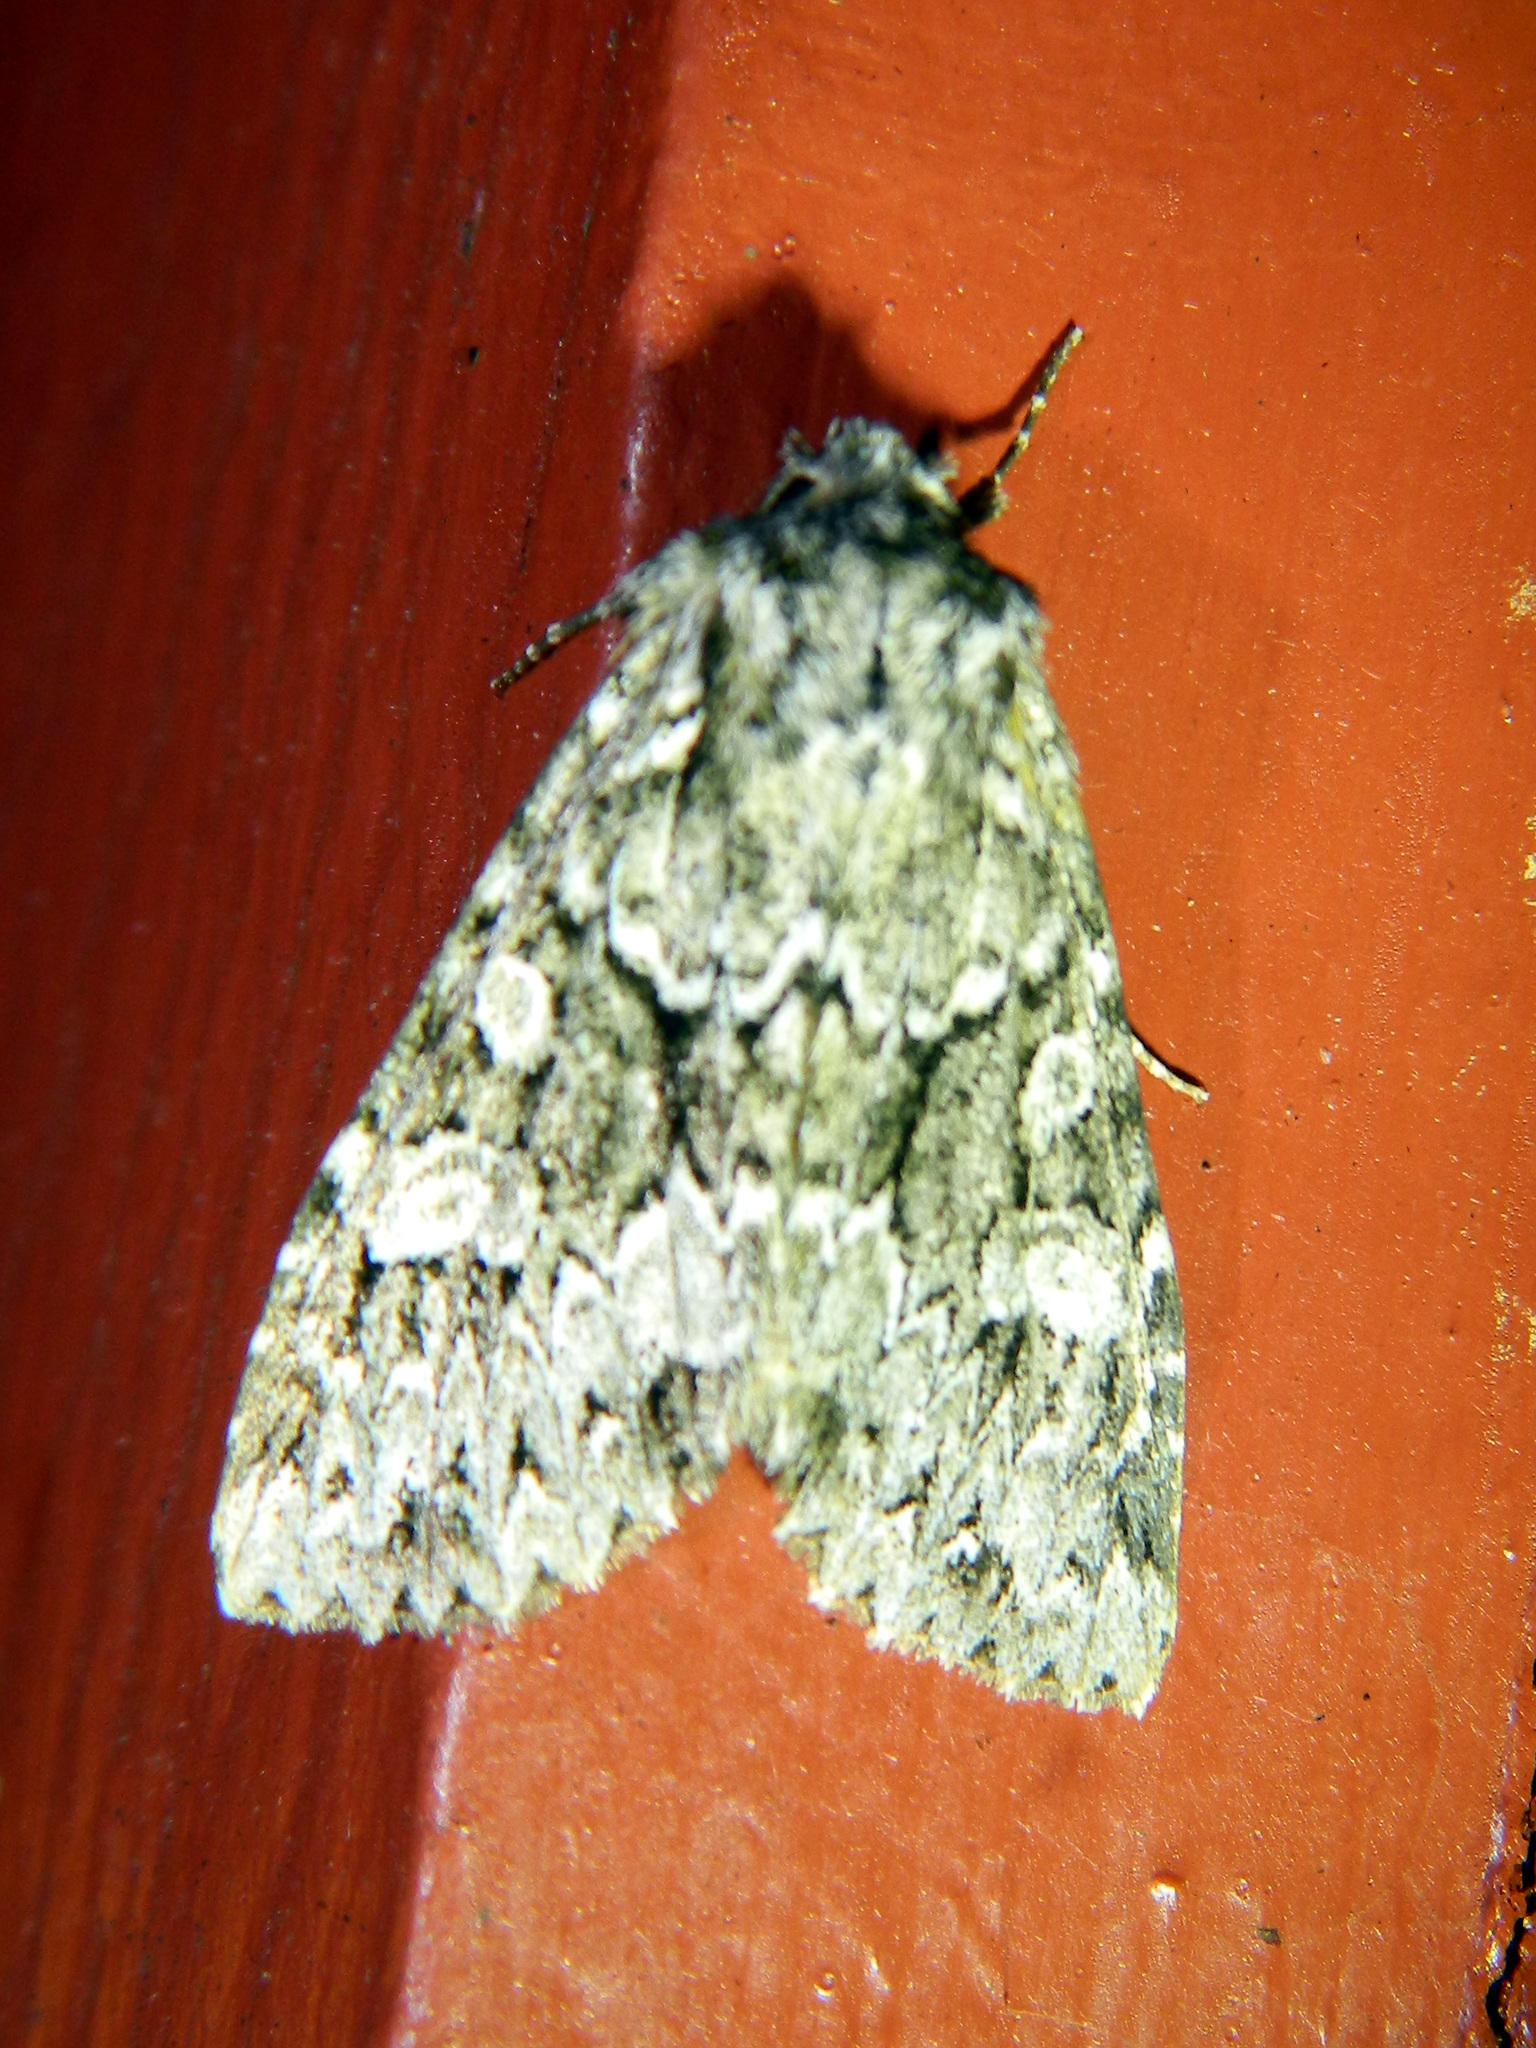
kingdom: Animalia
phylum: Arthropoda
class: Insecta
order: Lepidoptera
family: Noctuidae
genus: Platypolia
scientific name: Platypolia anceps
